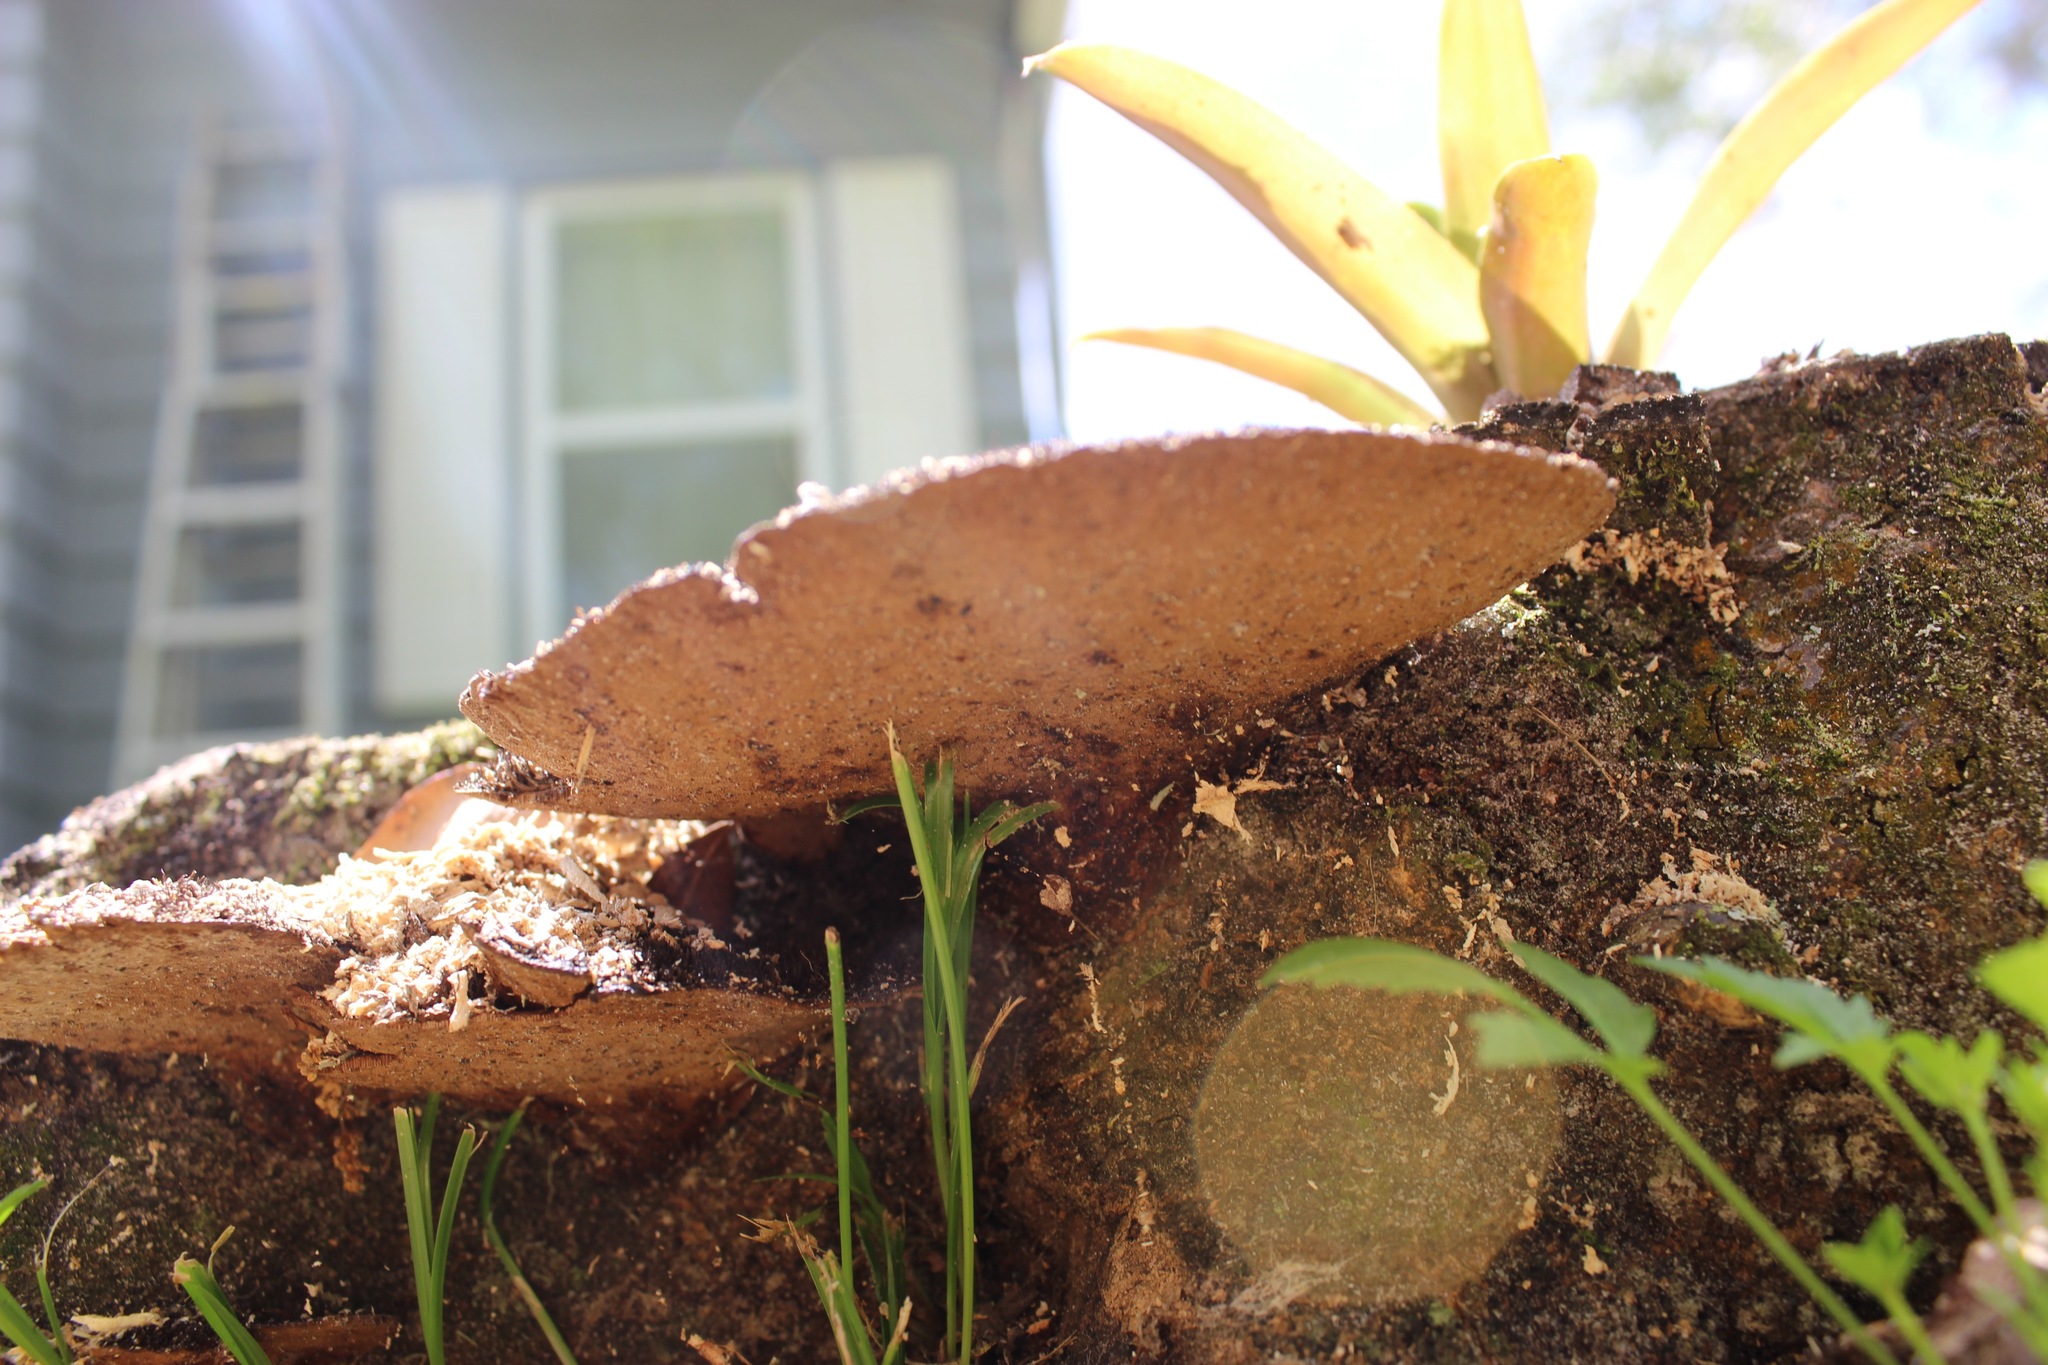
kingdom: Fungi
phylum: Basidiomycota
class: Agaricomycetes
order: Polyporales
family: Cerrenaceae
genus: Cerrena
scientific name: Cerrena hydnoides
